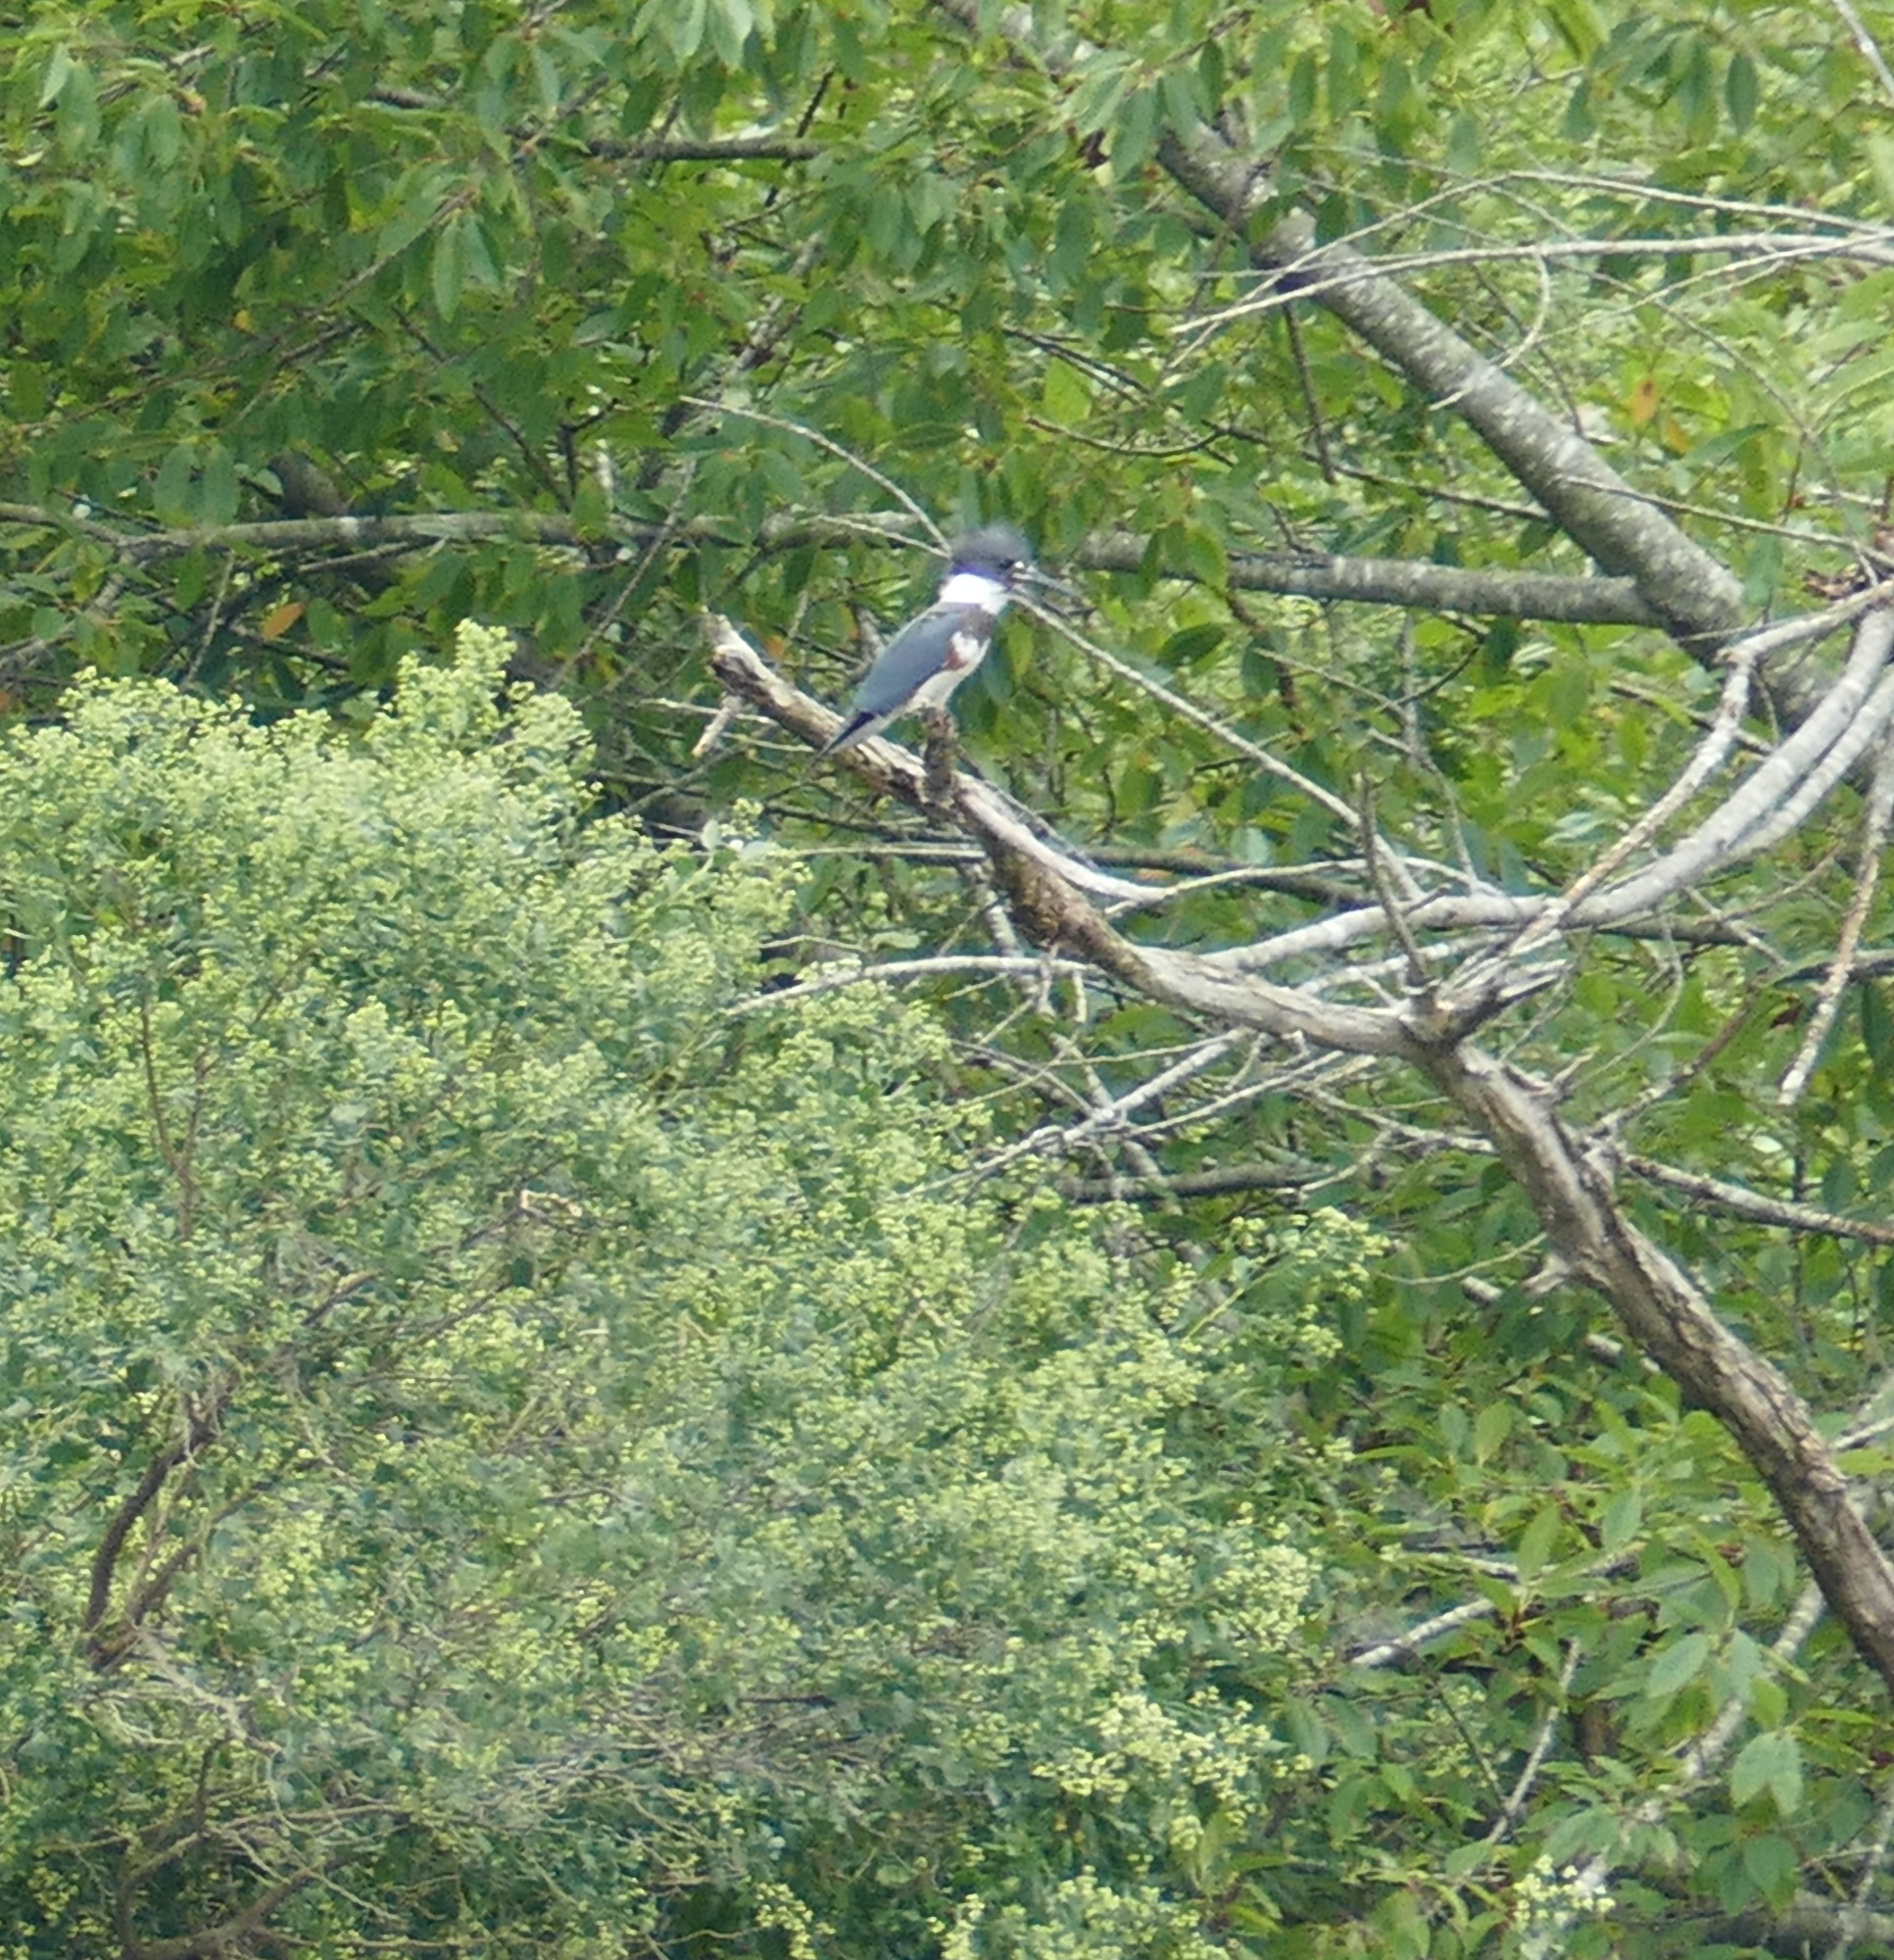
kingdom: Animalia
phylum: Chordata
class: Aves
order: Coraciiformes
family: Alcedinidae
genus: Megaceryle
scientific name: Megaceryle alcyon
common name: Belted kingfisher
